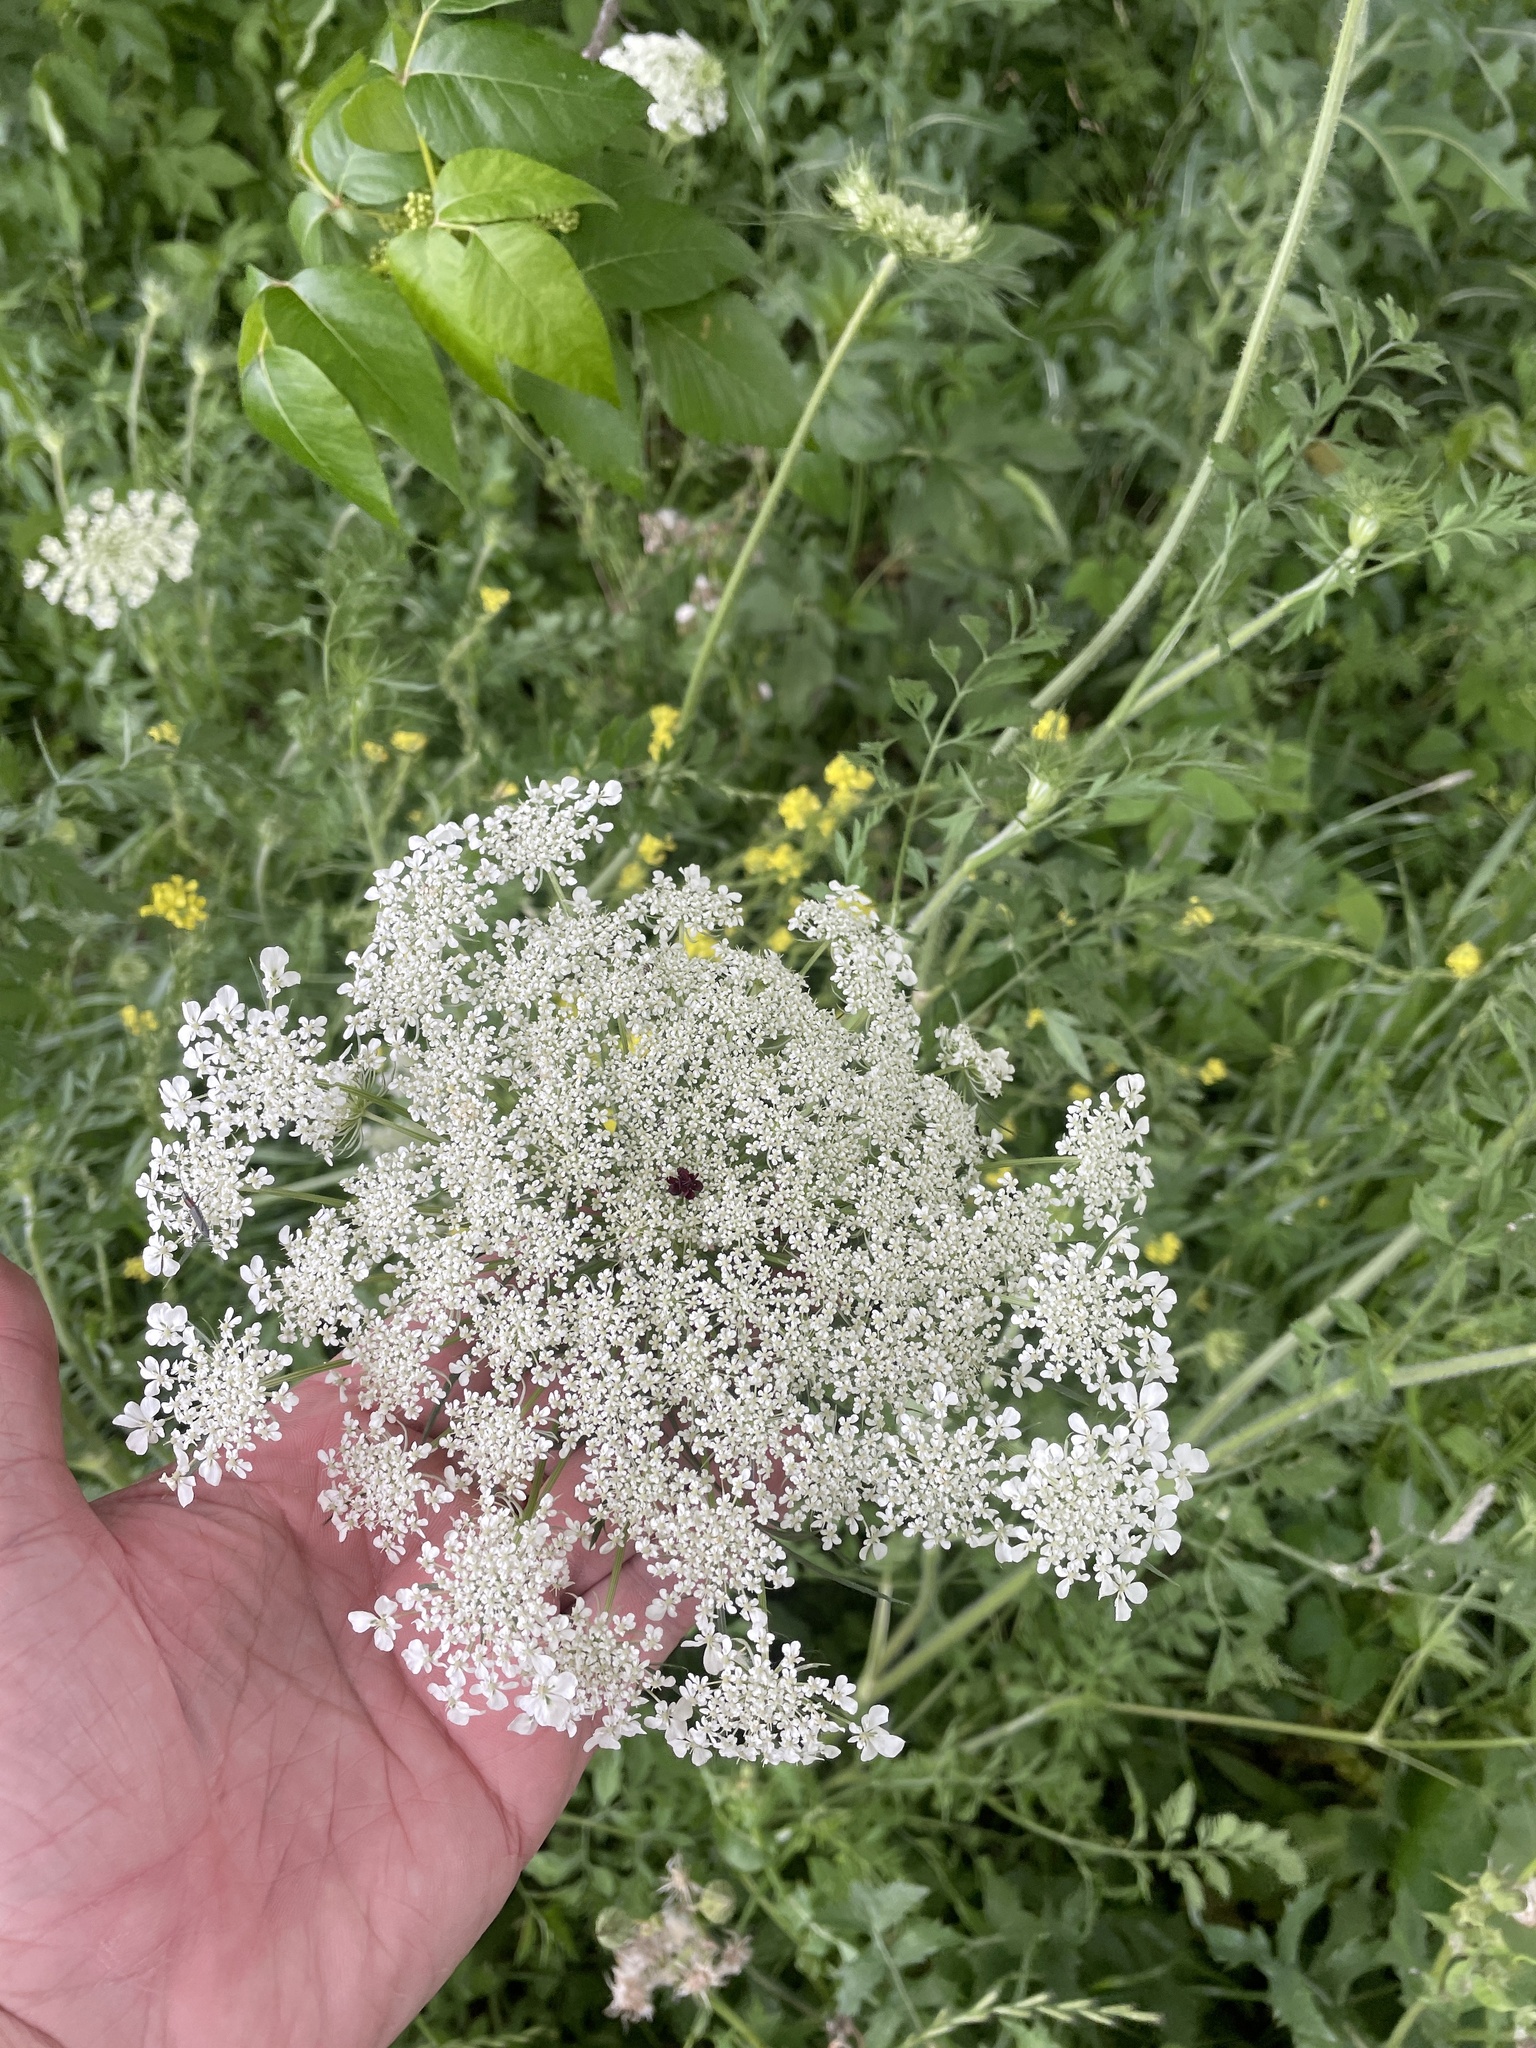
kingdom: Plantae
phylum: Tracheophyta
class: Magnoliopsida
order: Apiales
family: Apiaceae
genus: Daucus
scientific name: Daucus carota
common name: Wild carrot
